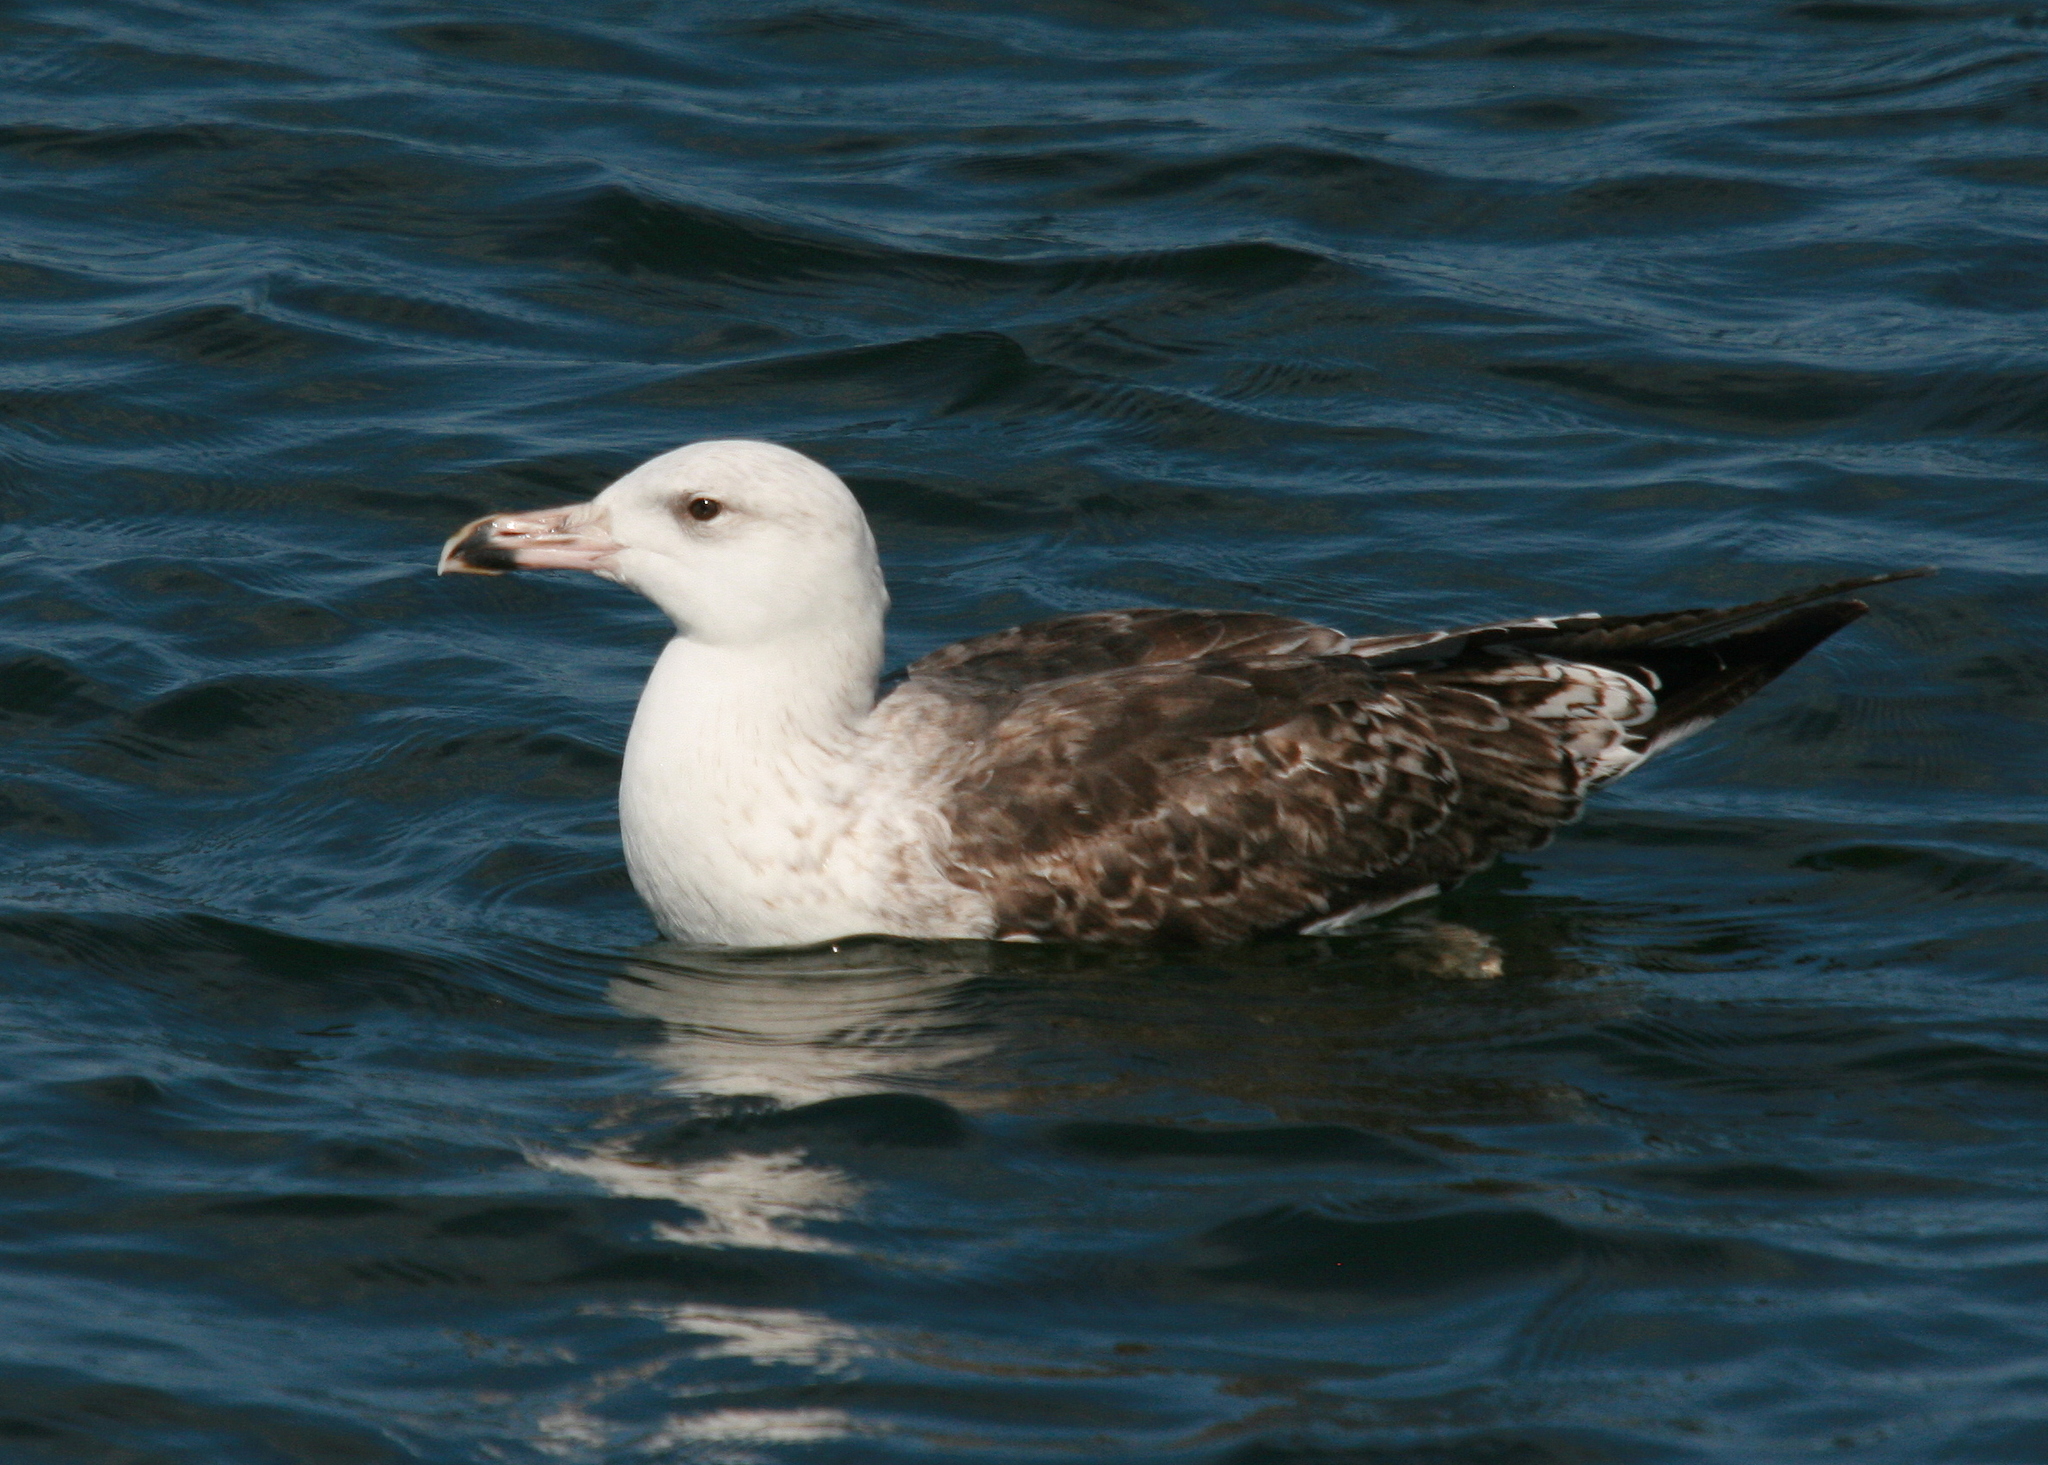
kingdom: Animalia
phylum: Chordata
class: Aves
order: Charadriiformes
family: Laridae
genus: Larus
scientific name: Larus marinus
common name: Great black-backed gull
